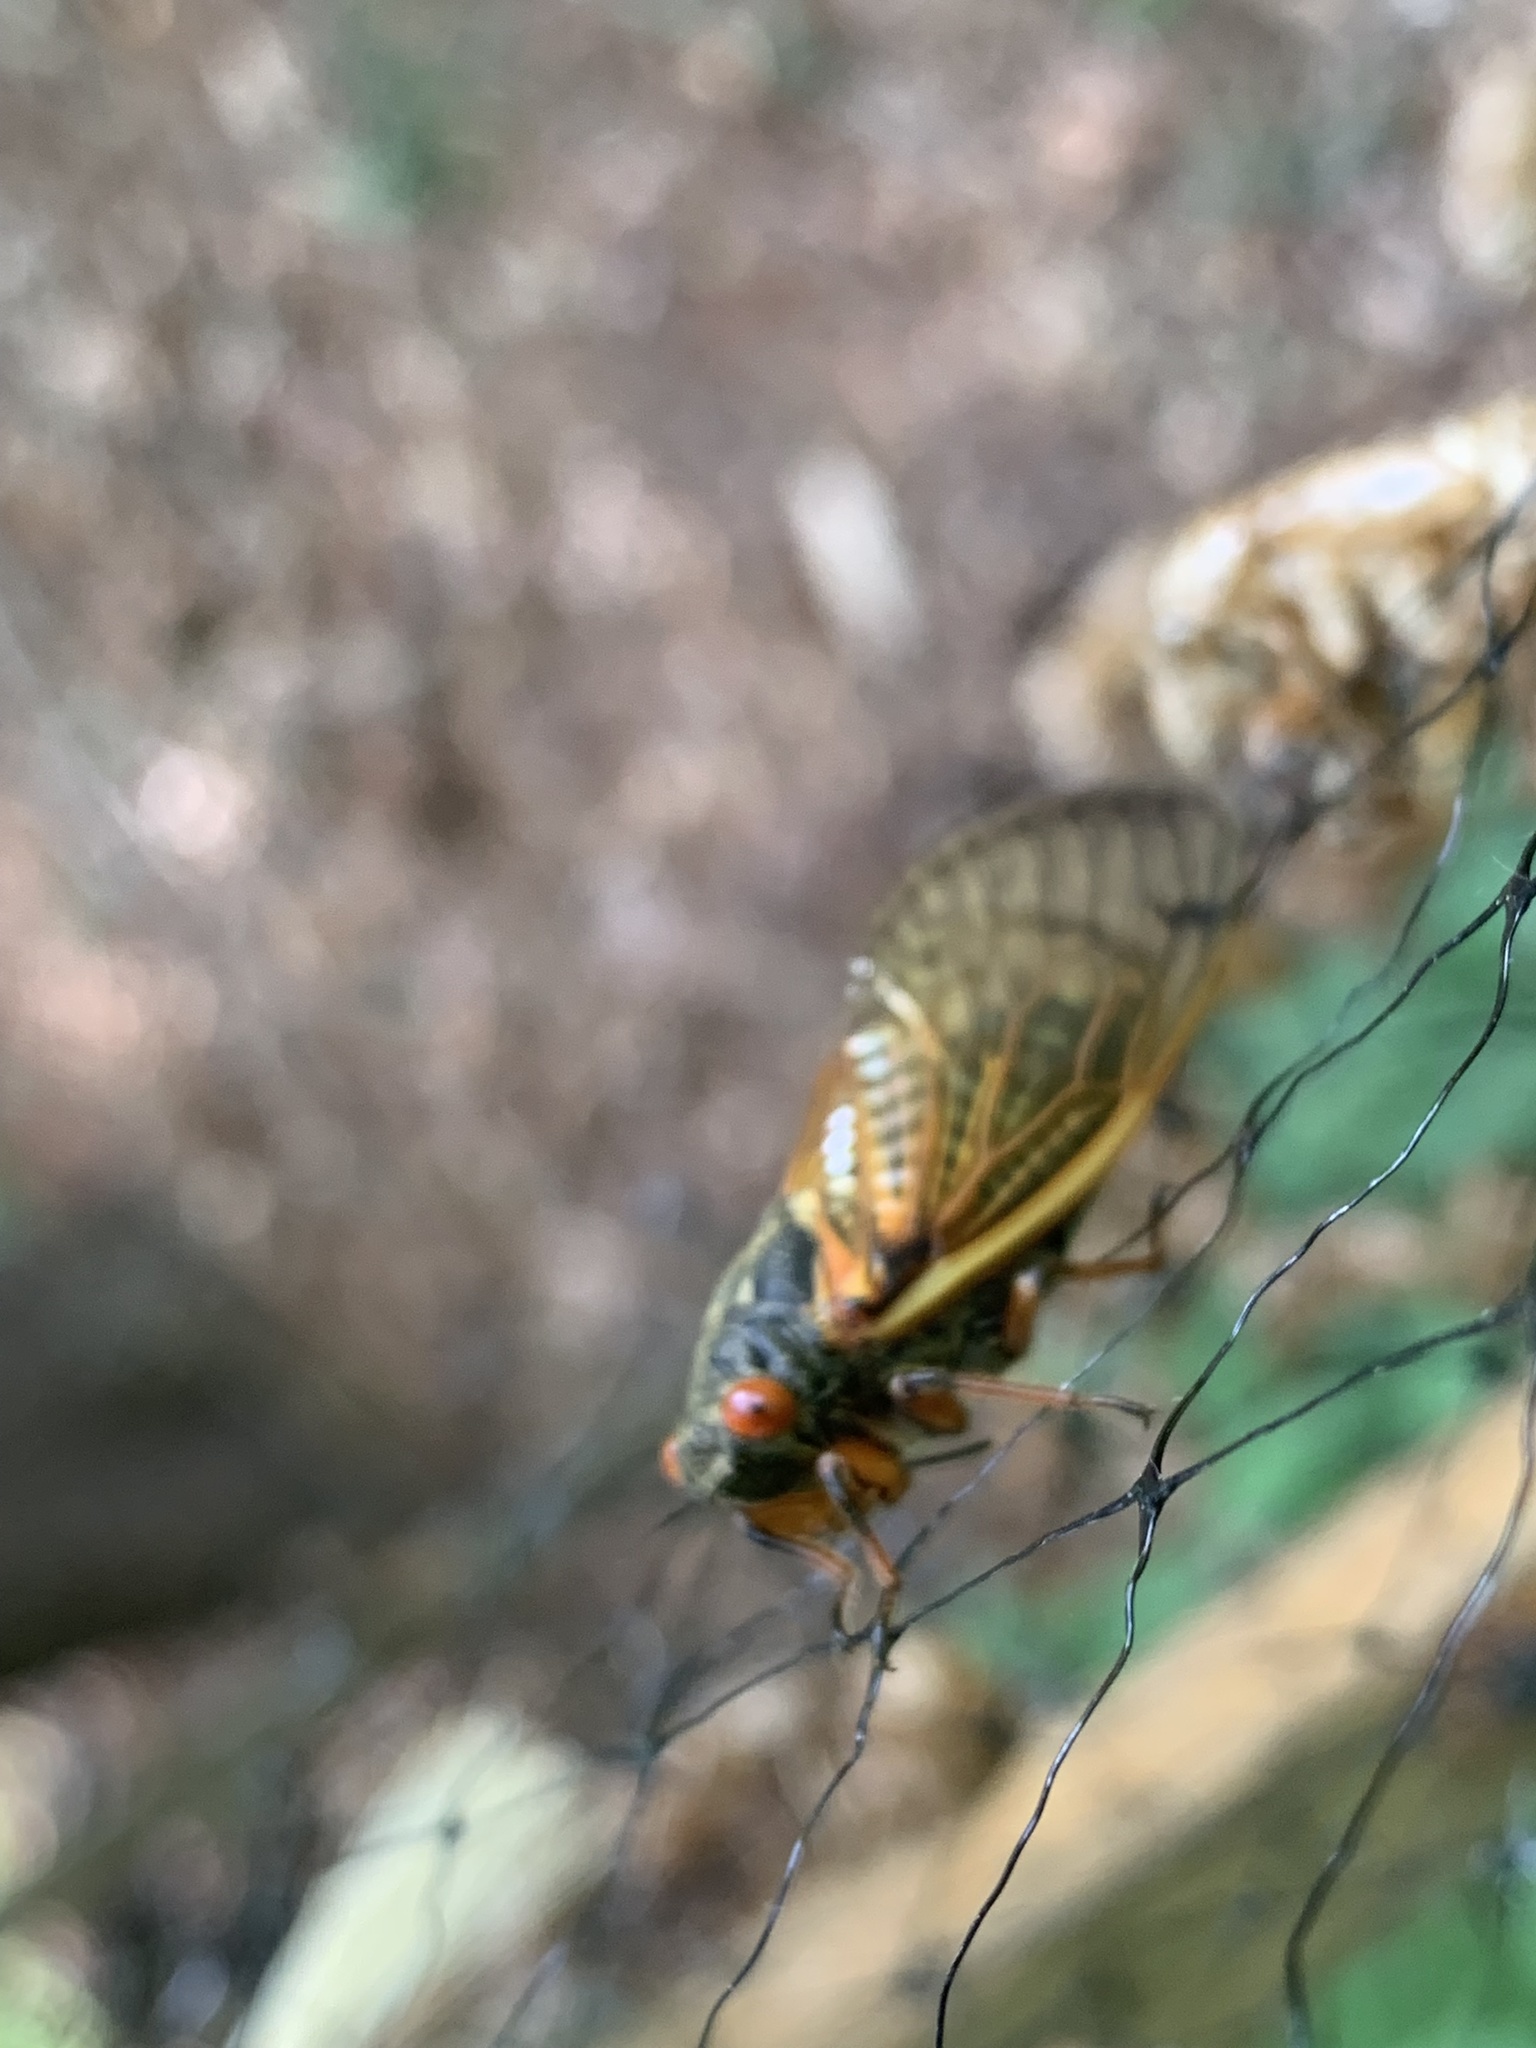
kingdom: Animalia
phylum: Arthropoda
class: Insecta
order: Hemiptera
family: Cicadidae
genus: Magicicada
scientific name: Magicicada
